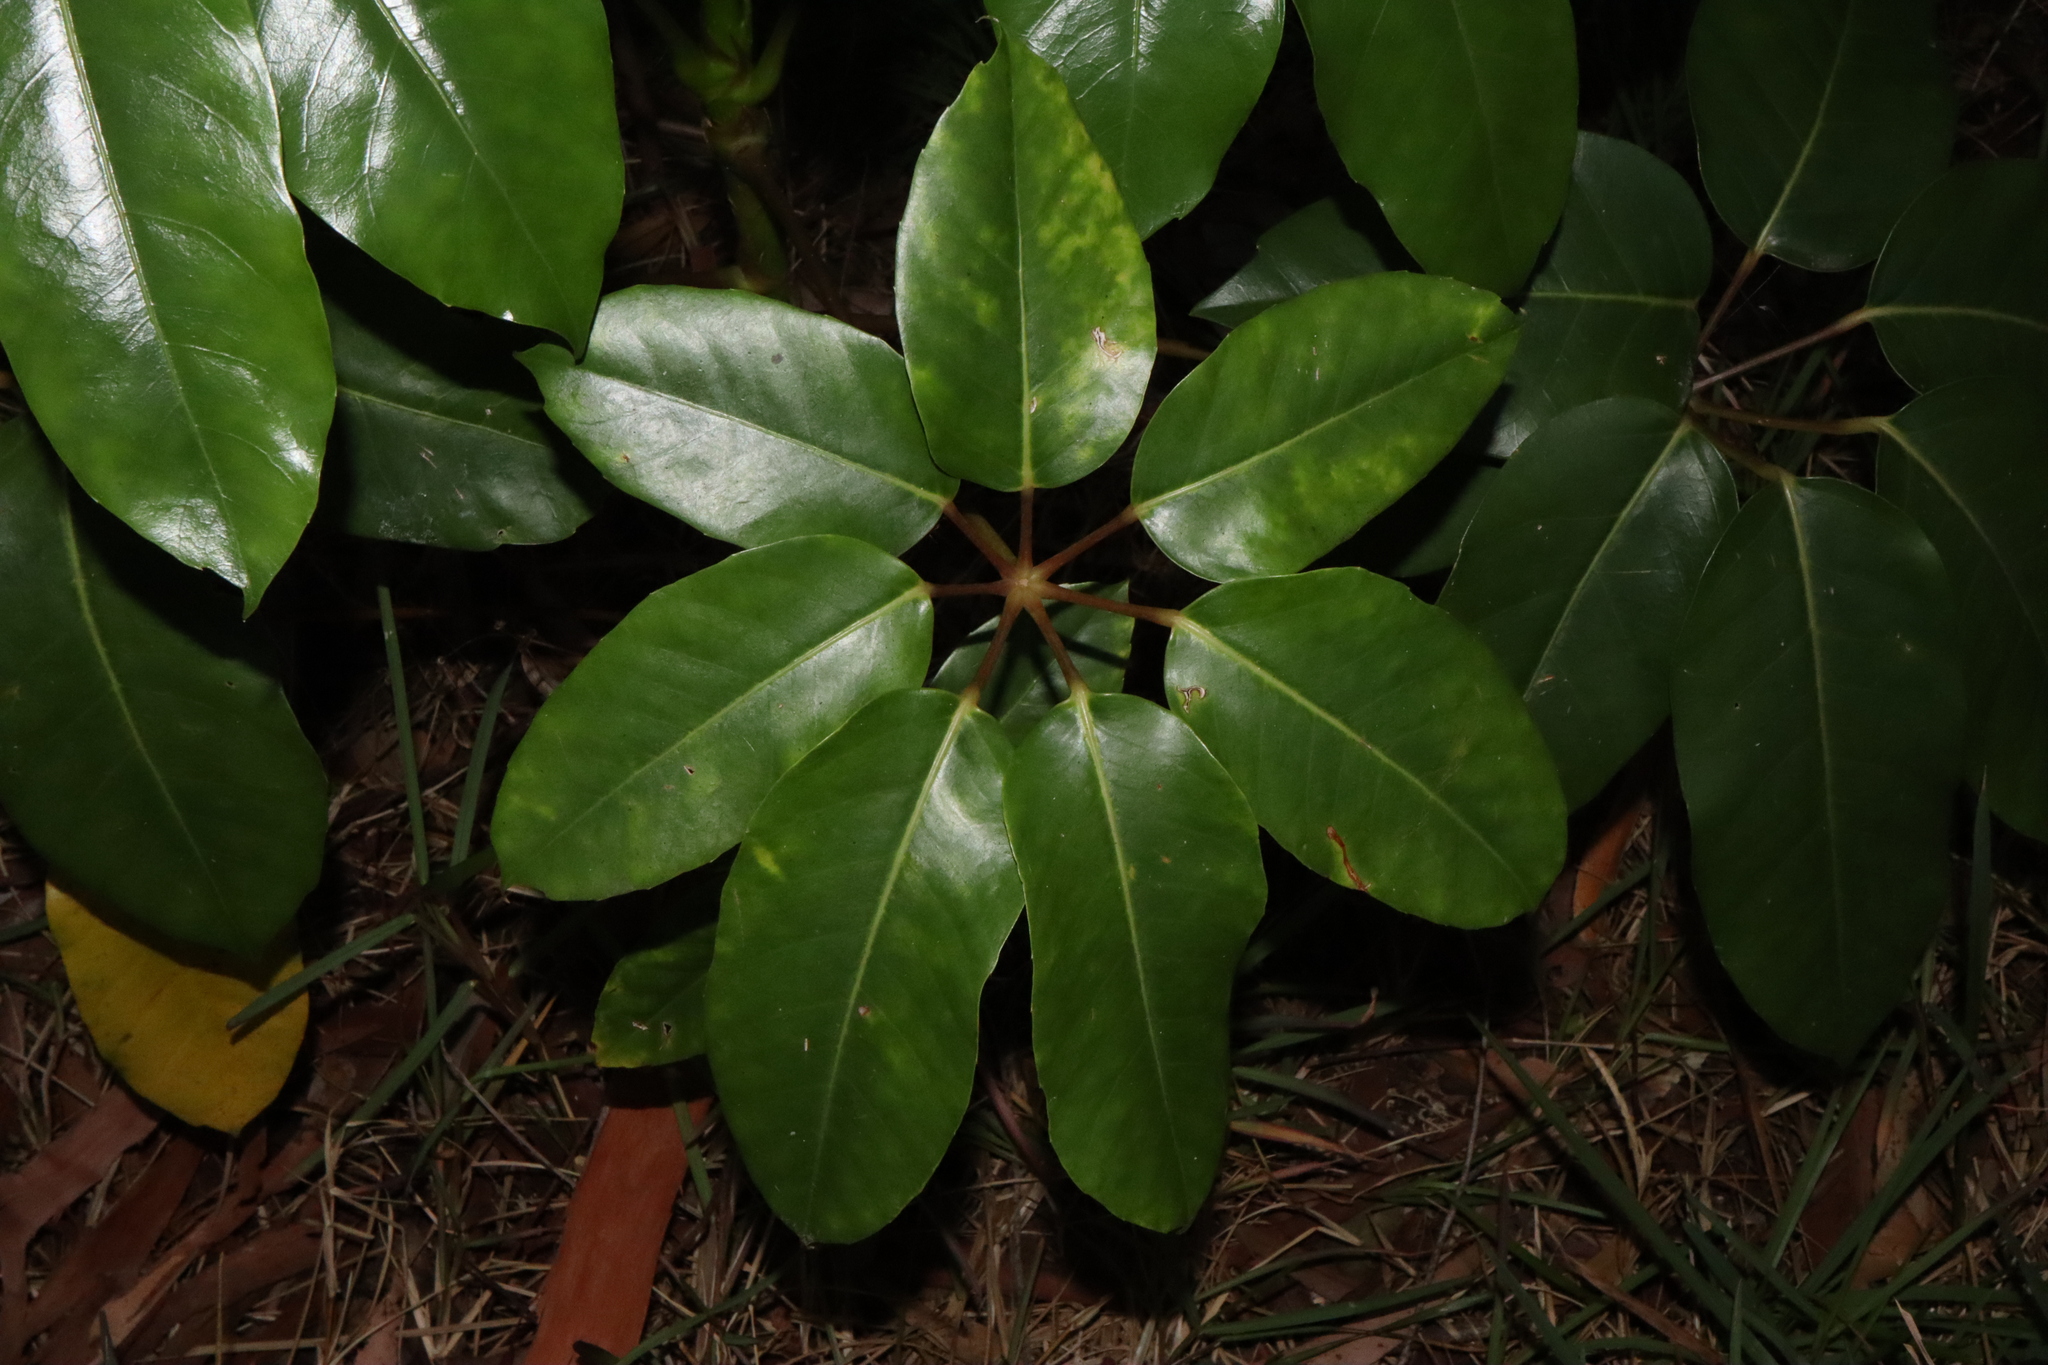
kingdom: Plantae
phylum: Tracheophyta
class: Magnoliopsida
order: Apiales
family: Araliaceae
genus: Heptapleurum
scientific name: Heptapleurum actinophyllum
